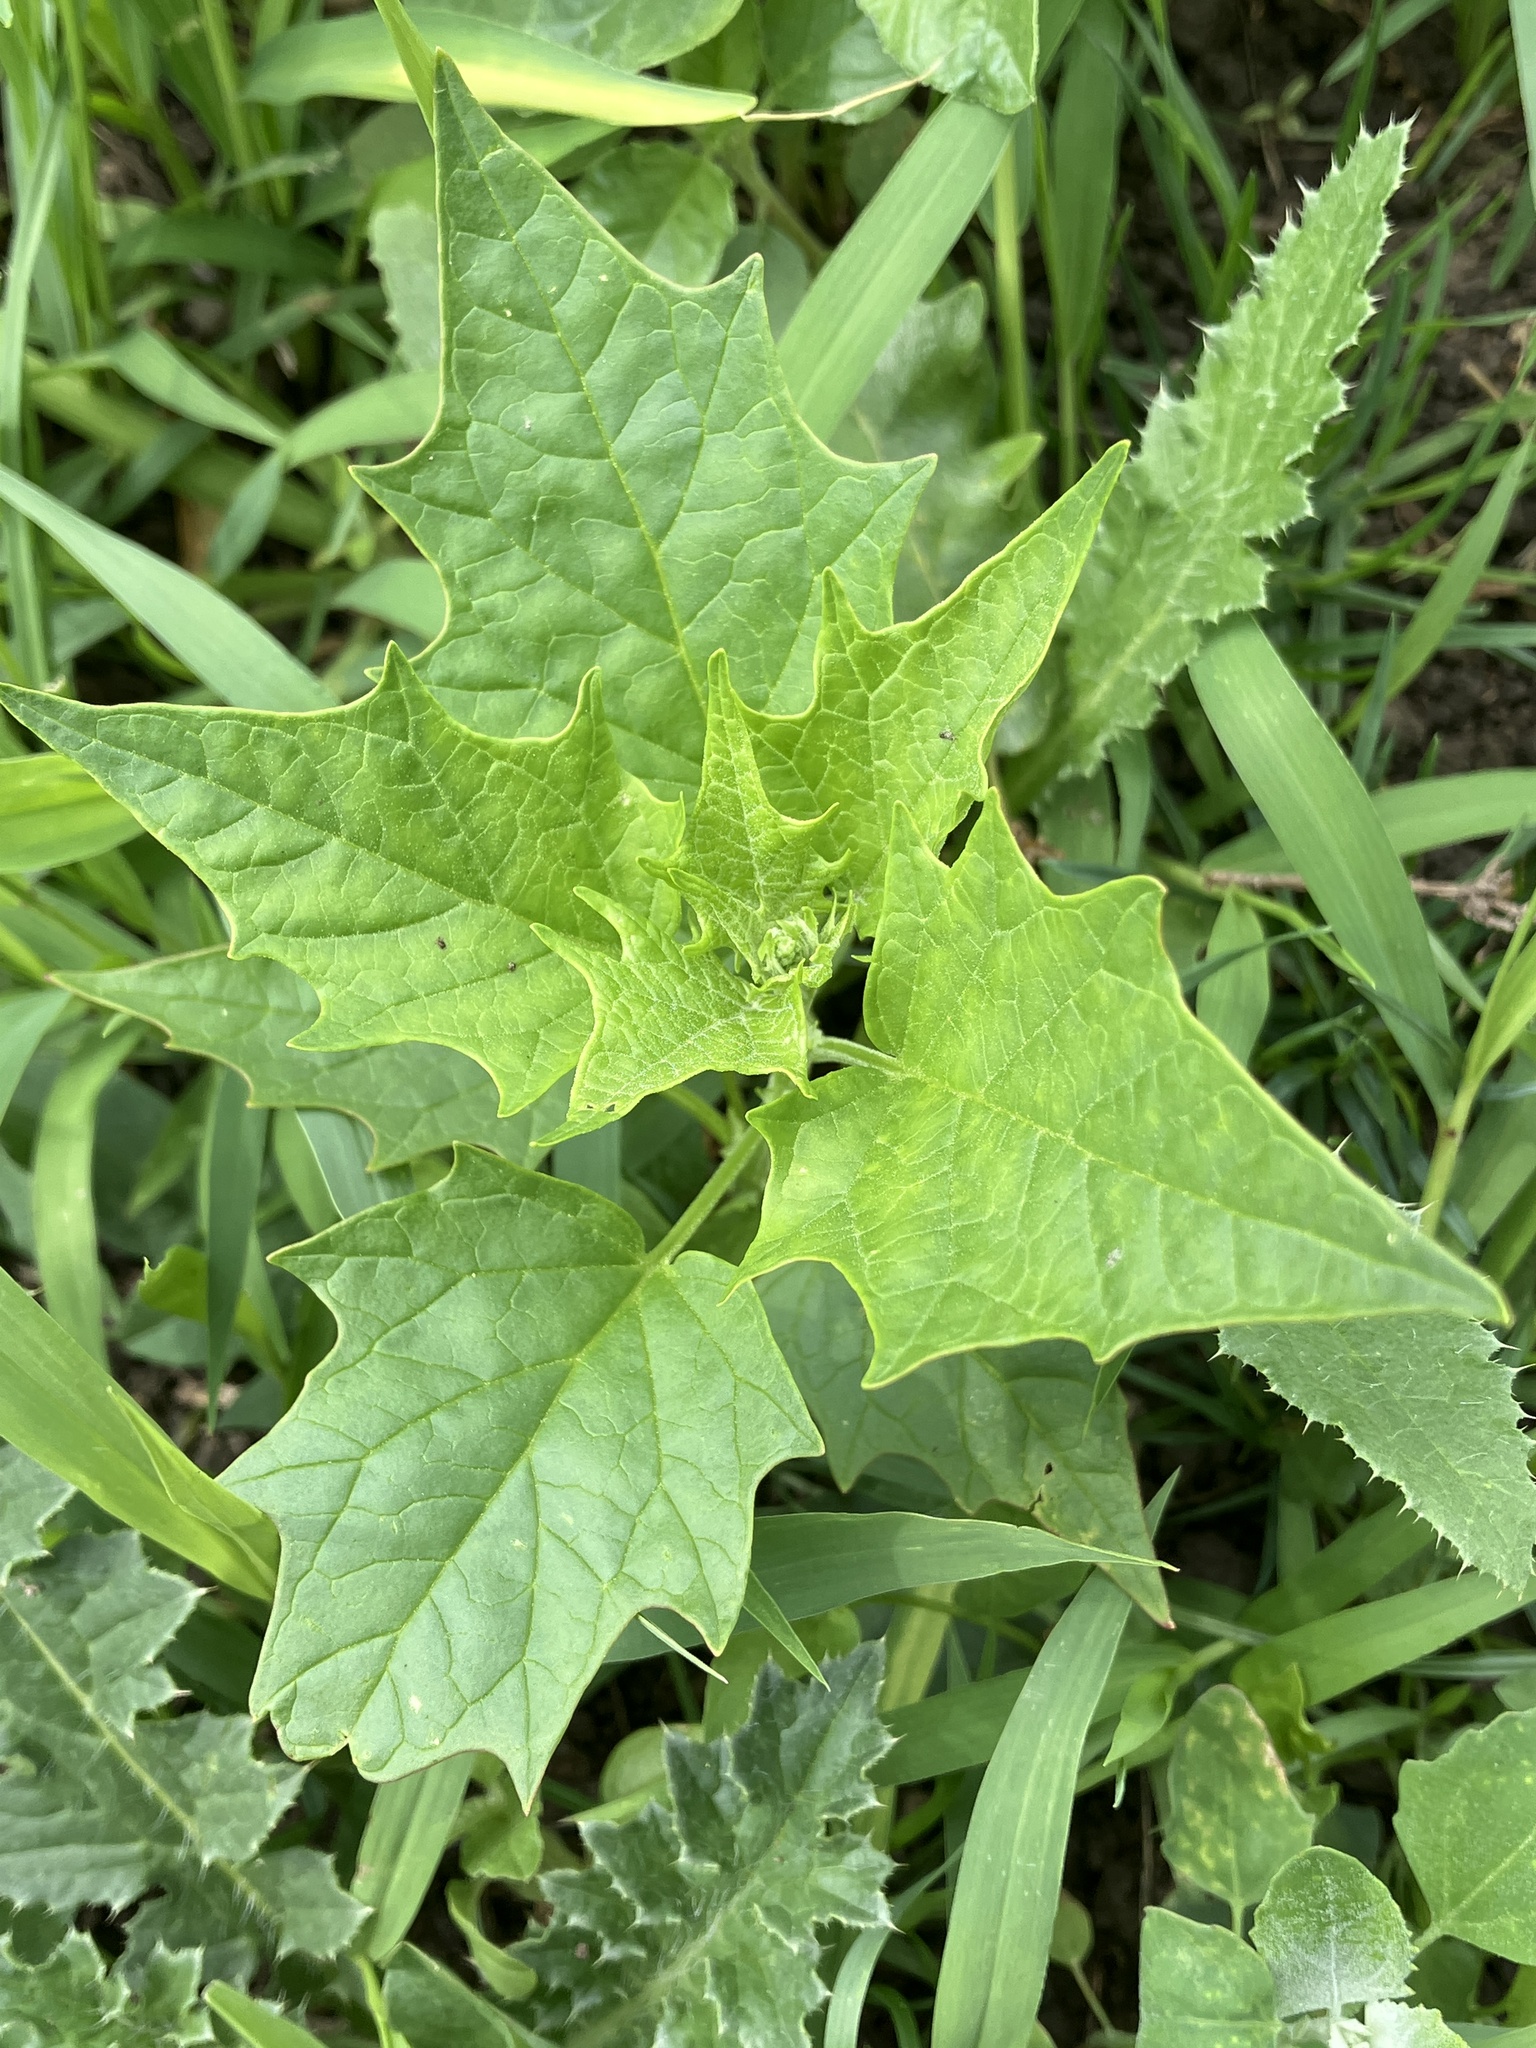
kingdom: Plantae
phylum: Tracheophyta
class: Magnoliopsida
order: Caryophyllales
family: Amaranthaceae
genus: Chenopodiastrum
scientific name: Chenopodiastrum hybridum
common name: Mapleleaf goosefoot
